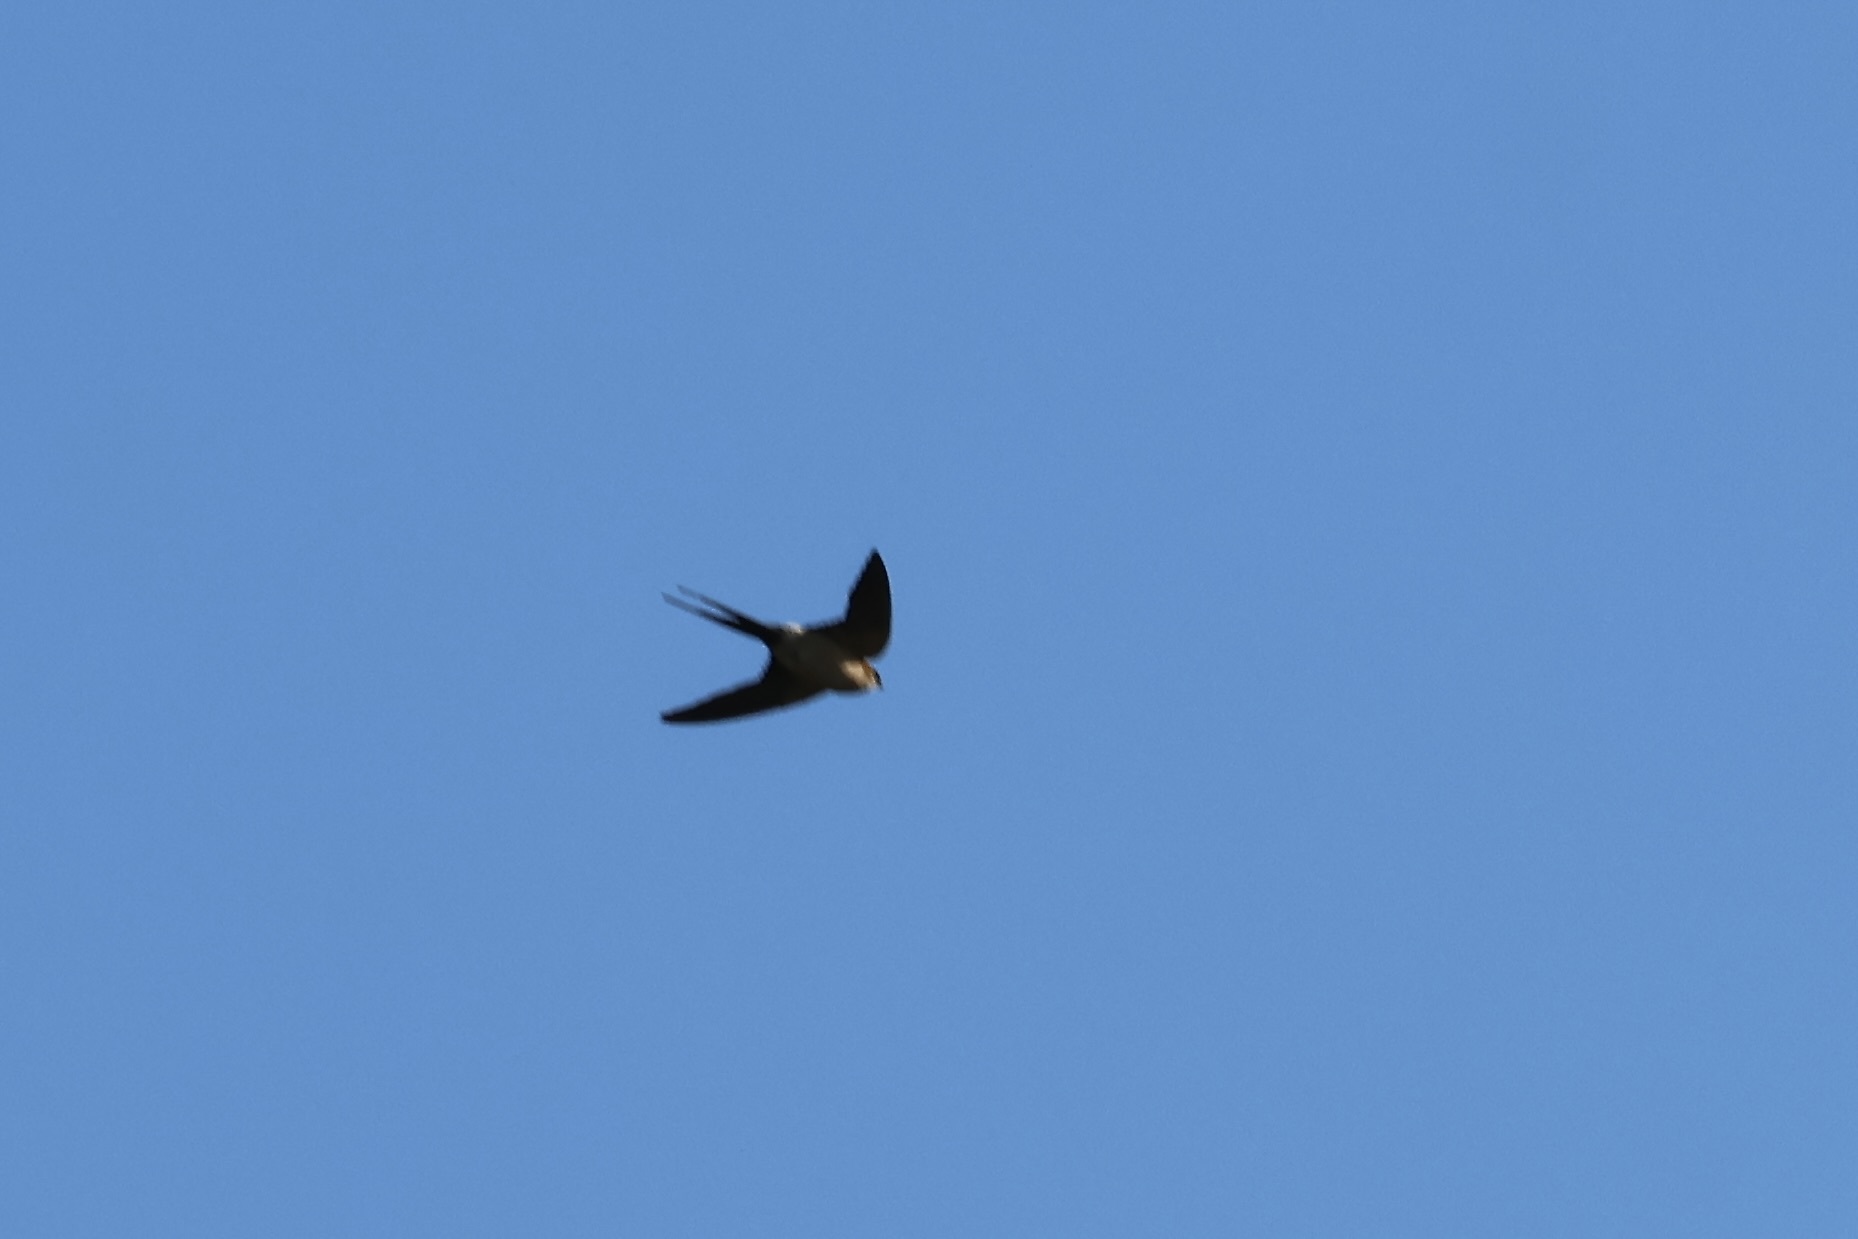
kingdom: Animalia
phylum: Chordata
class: Aves
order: Passeriformes
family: Hirundinidae
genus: Cecropis
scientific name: Cecropis daurica
